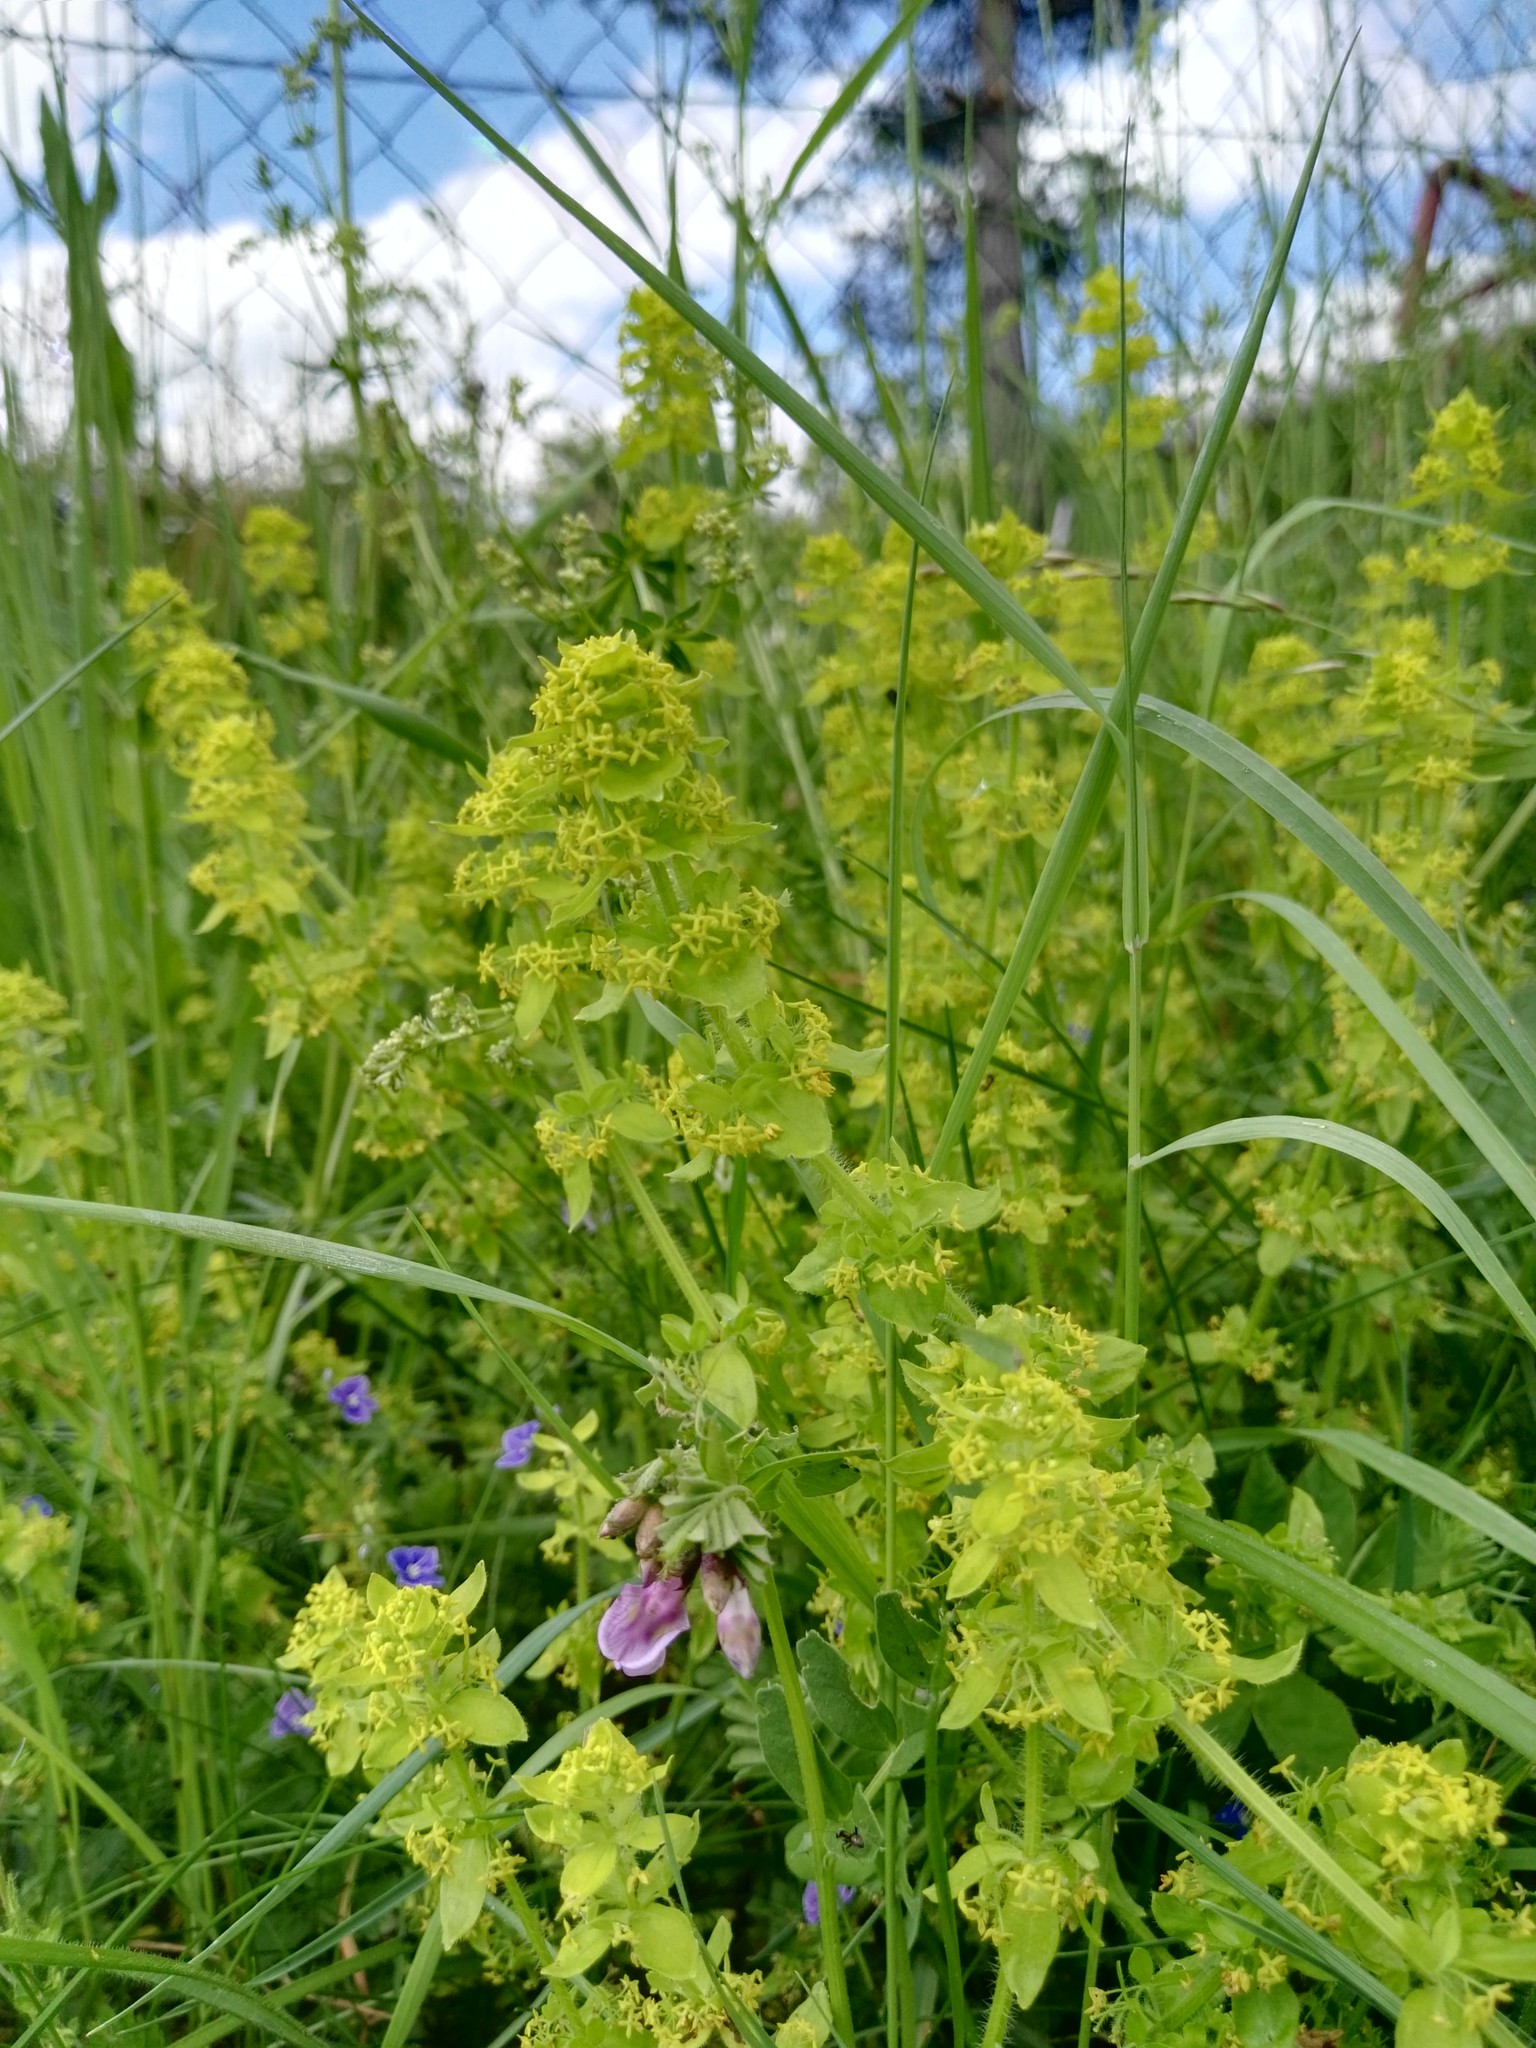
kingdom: Plantae
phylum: Tracheophyta
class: Magnoliopsida
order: Gentianales
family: Rubiaceae
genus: Cruciata
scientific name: Cruciata laevipes
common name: Crosswort
